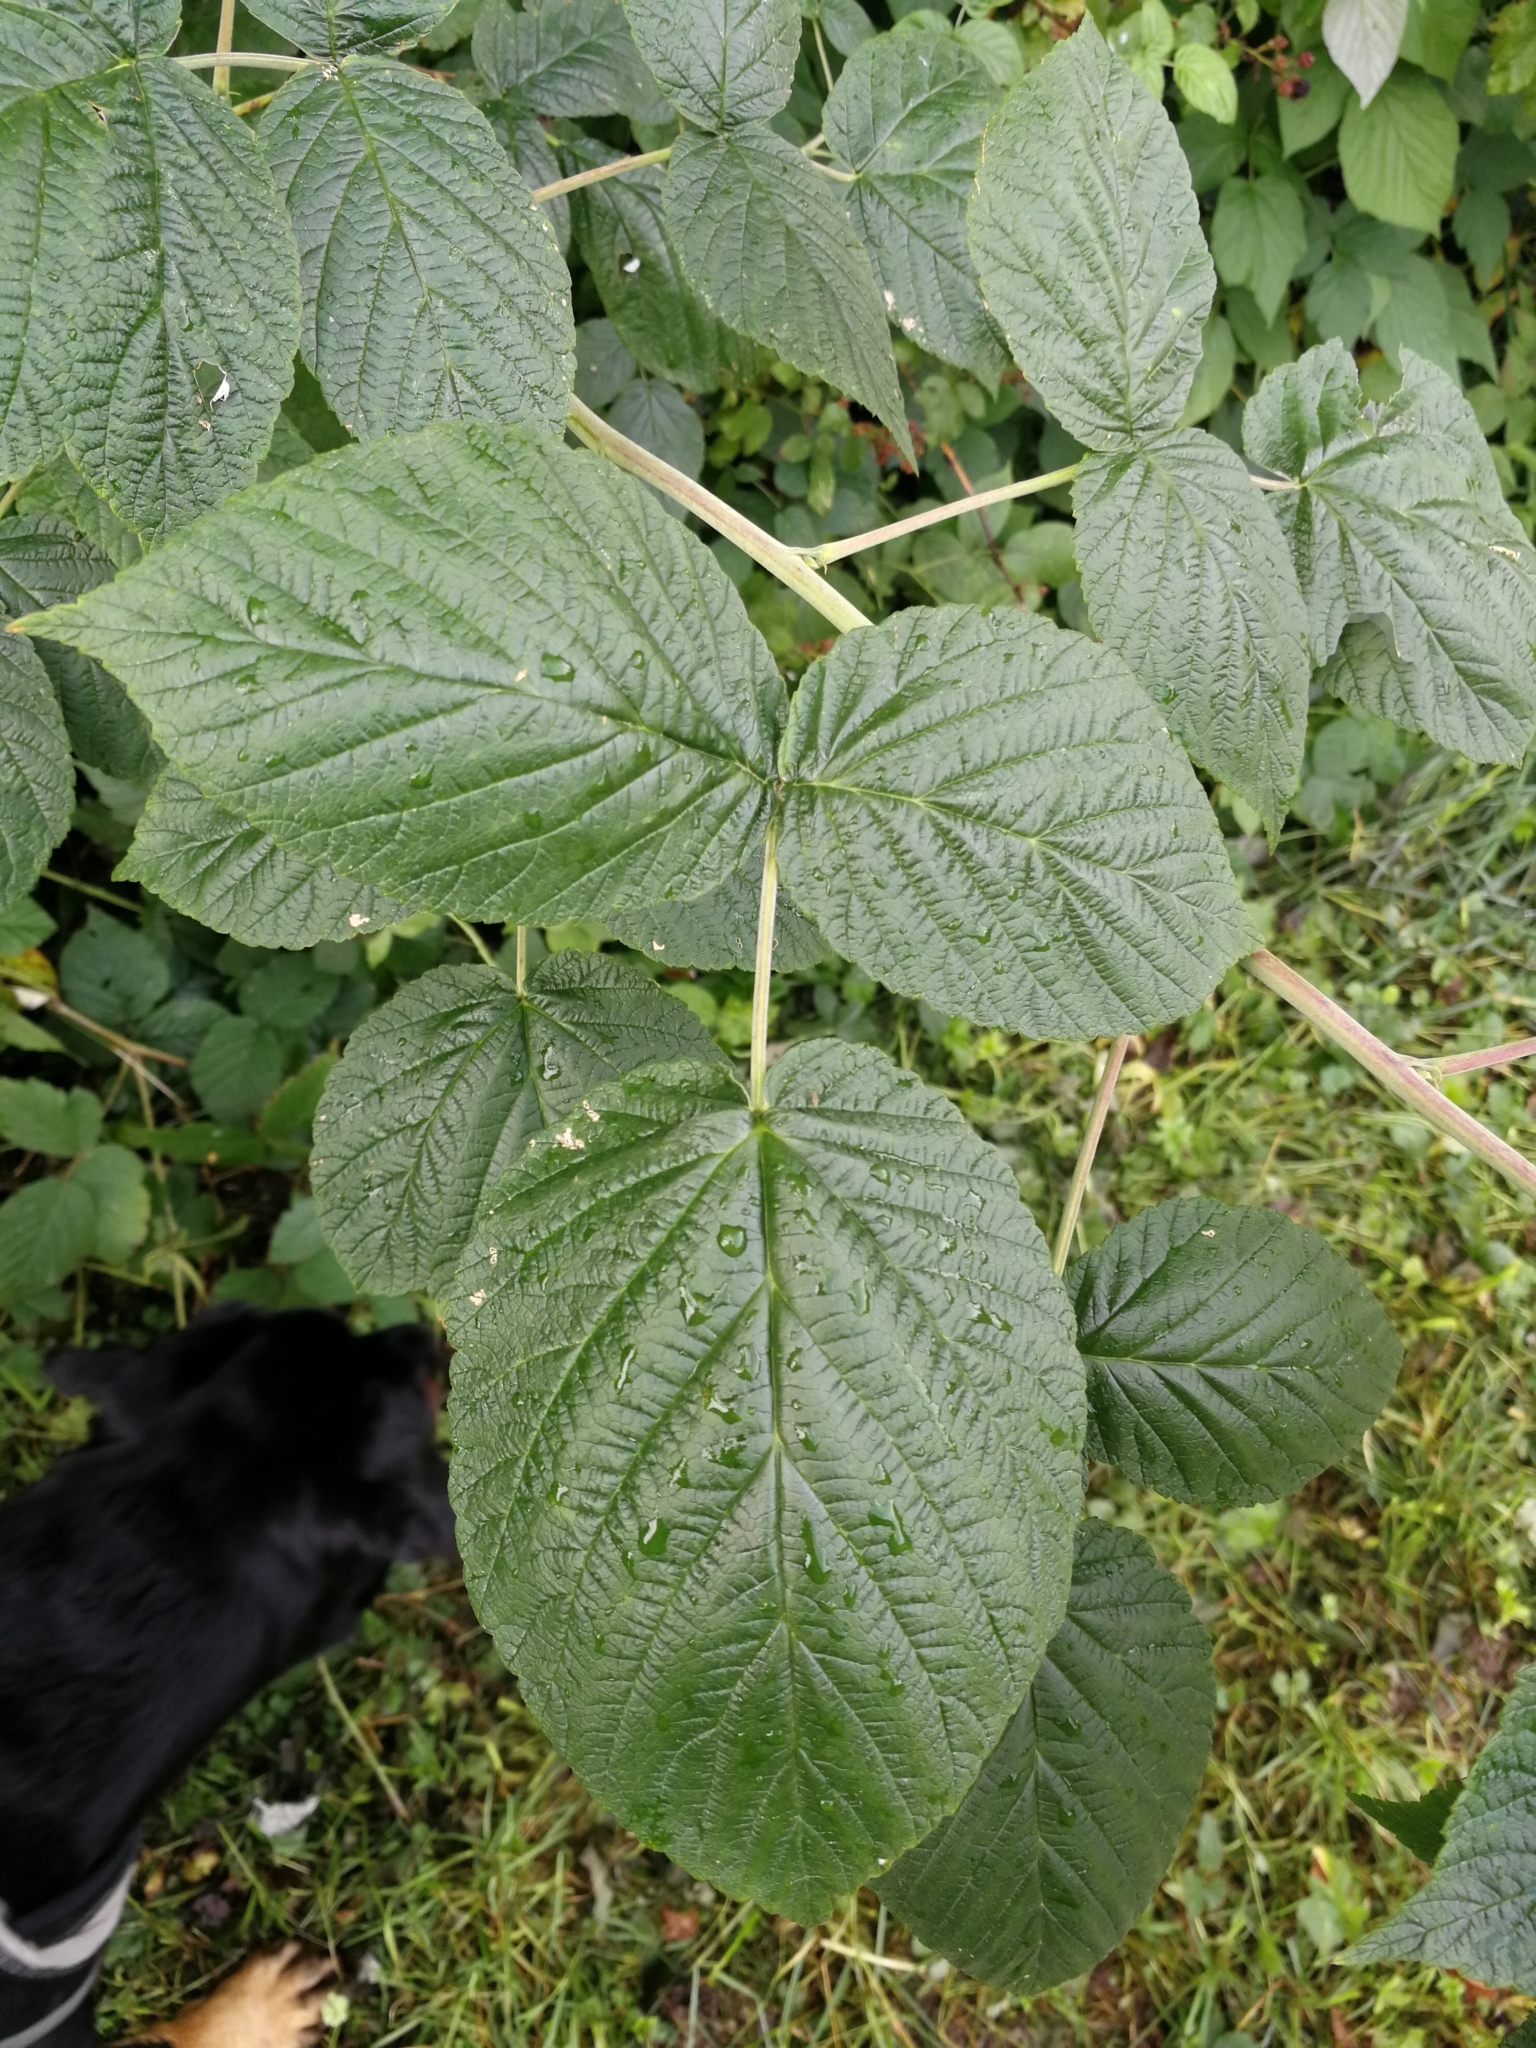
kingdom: Plantae
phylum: Tracheophyta
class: Magnoliopsida
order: Rosales
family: Rosaceae
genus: Rubus
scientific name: Rubus idaeus
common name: Raspberry
